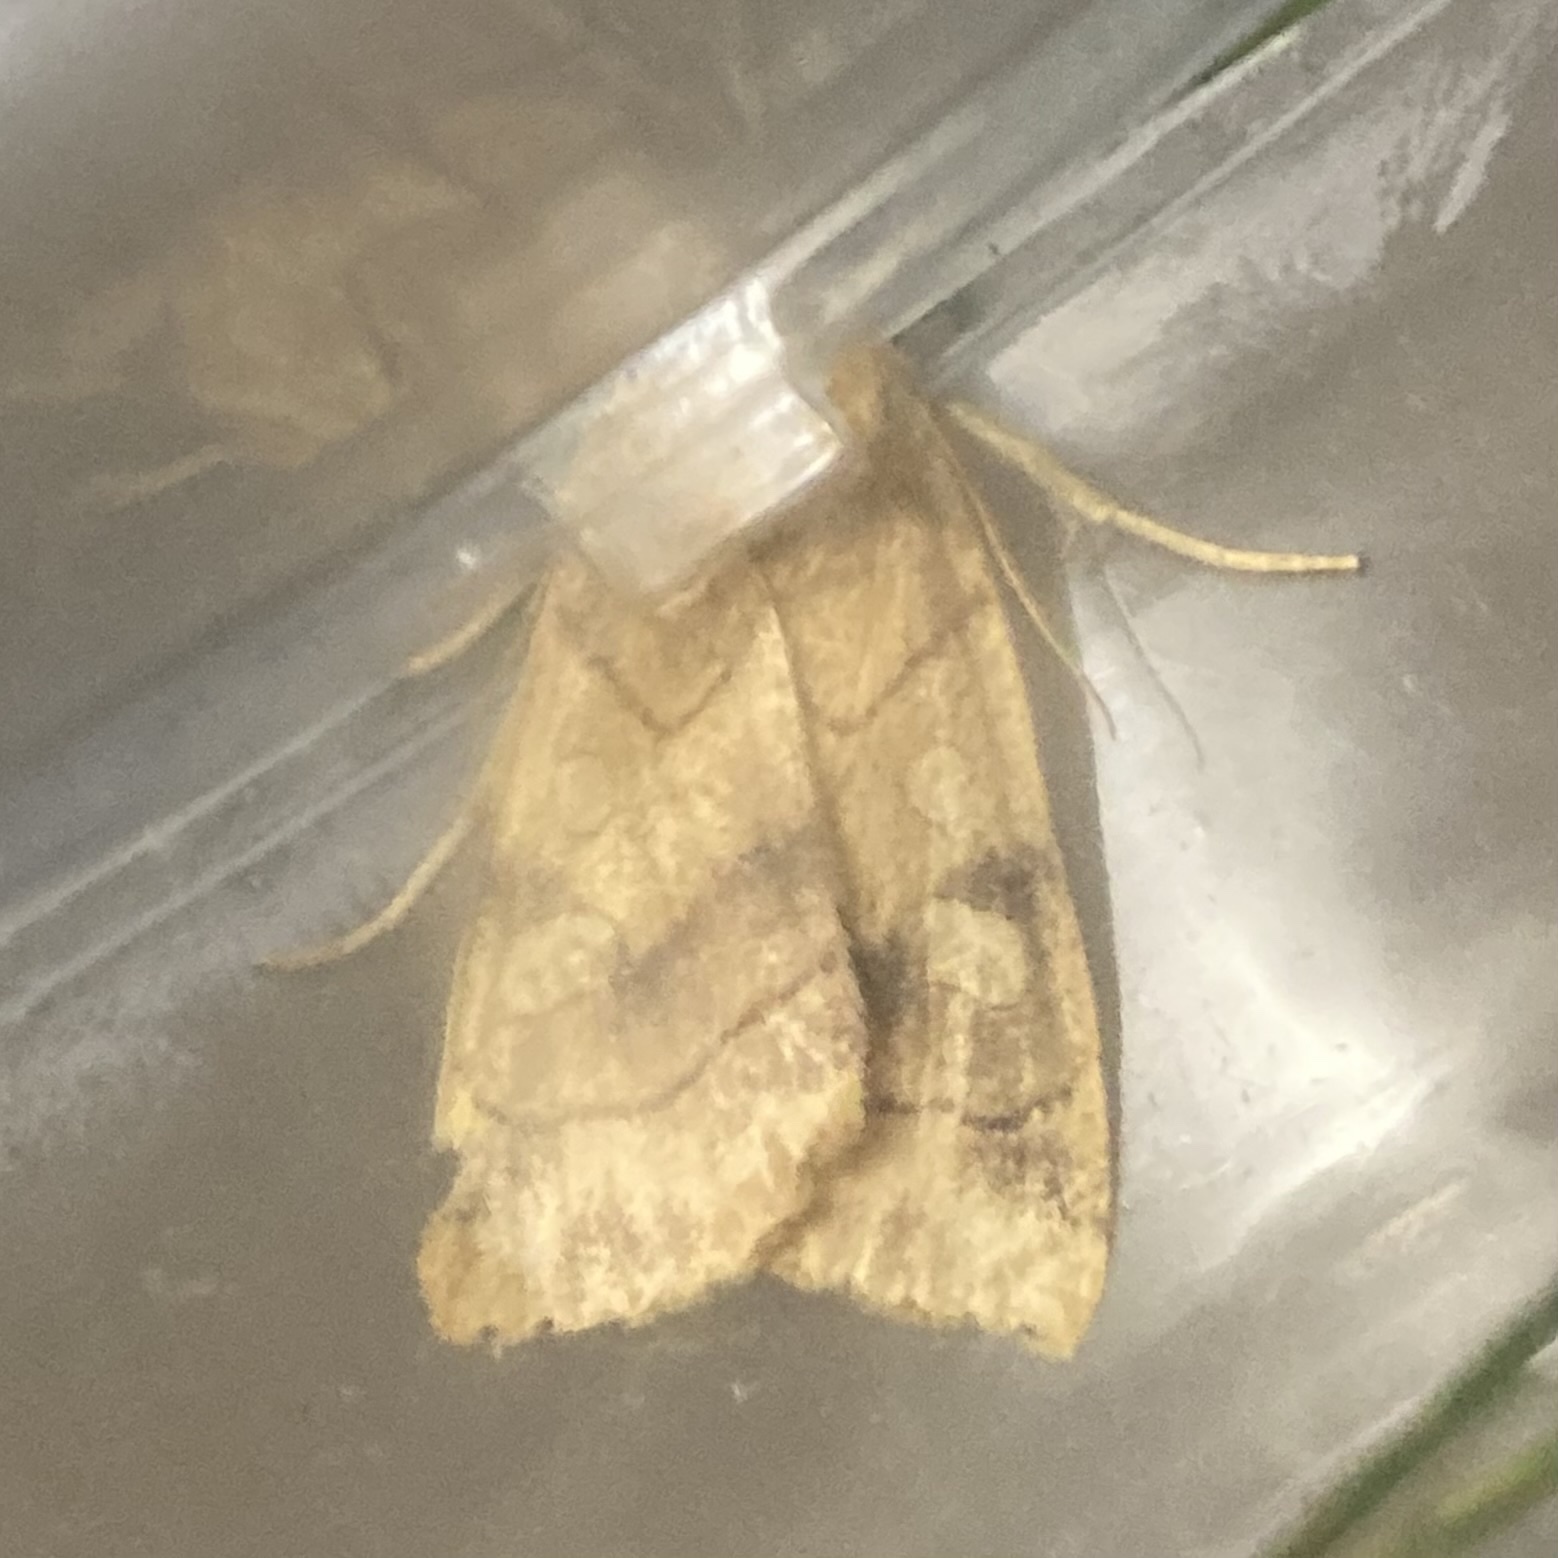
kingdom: Animalia
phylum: Arthropoda
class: Insecta
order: Lepidoptera
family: Noctuidae
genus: Enargia
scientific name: Enargia decolor
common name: Aspen twoleaf tier moth
